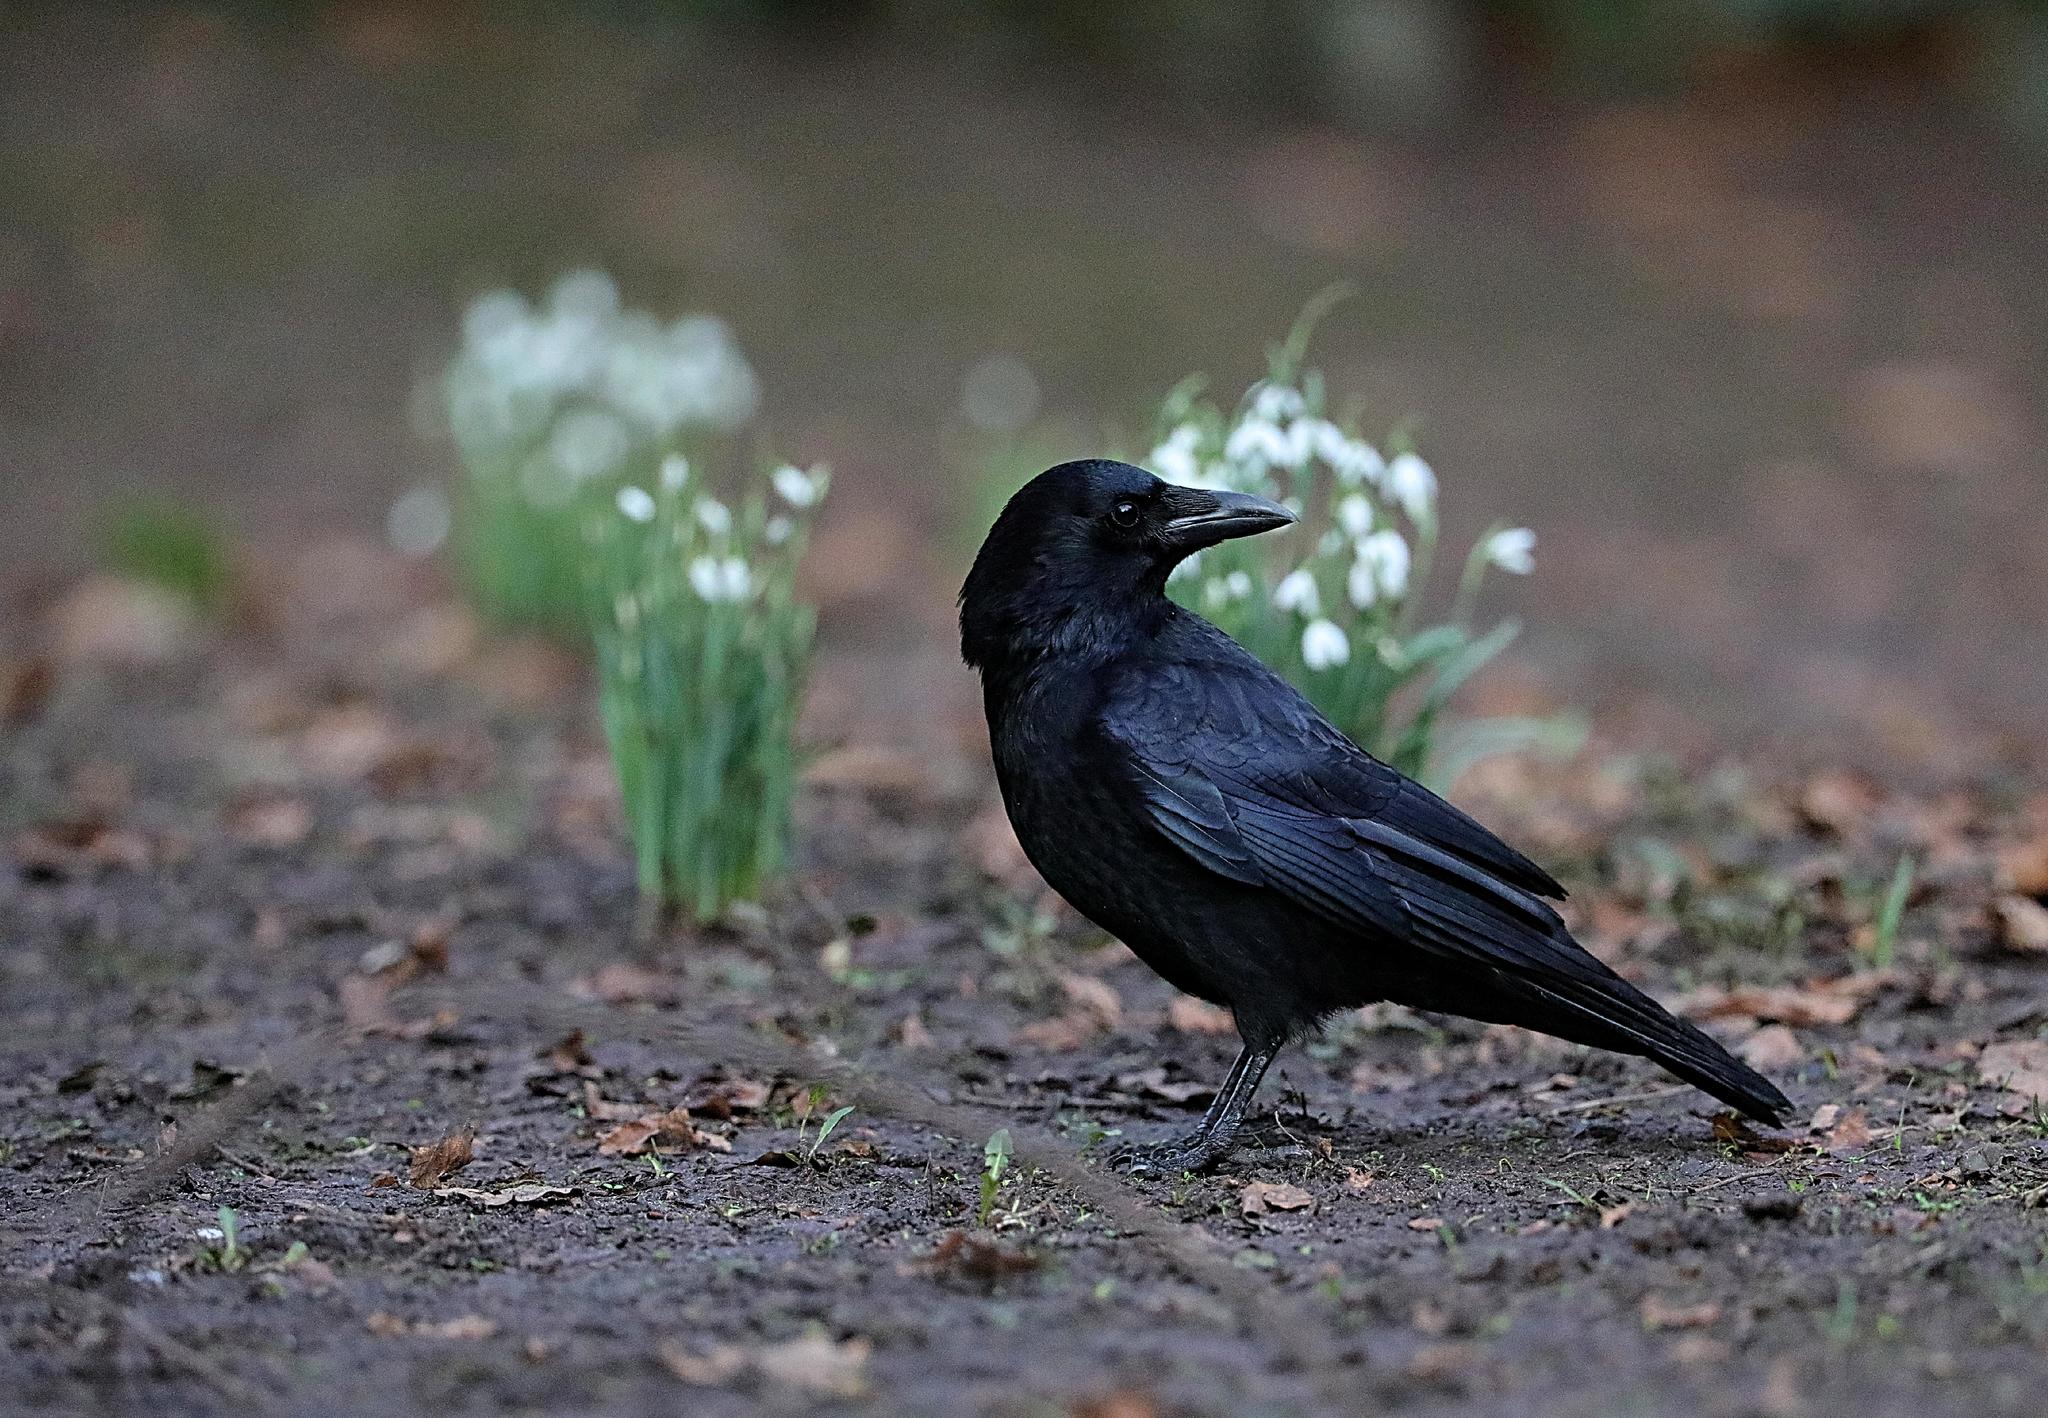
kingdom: Animalia
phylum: Chordata
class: Aves
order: Passeriformes
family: Corvidae
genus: Corvus
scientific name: Corvus corone
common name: Carrion crow
